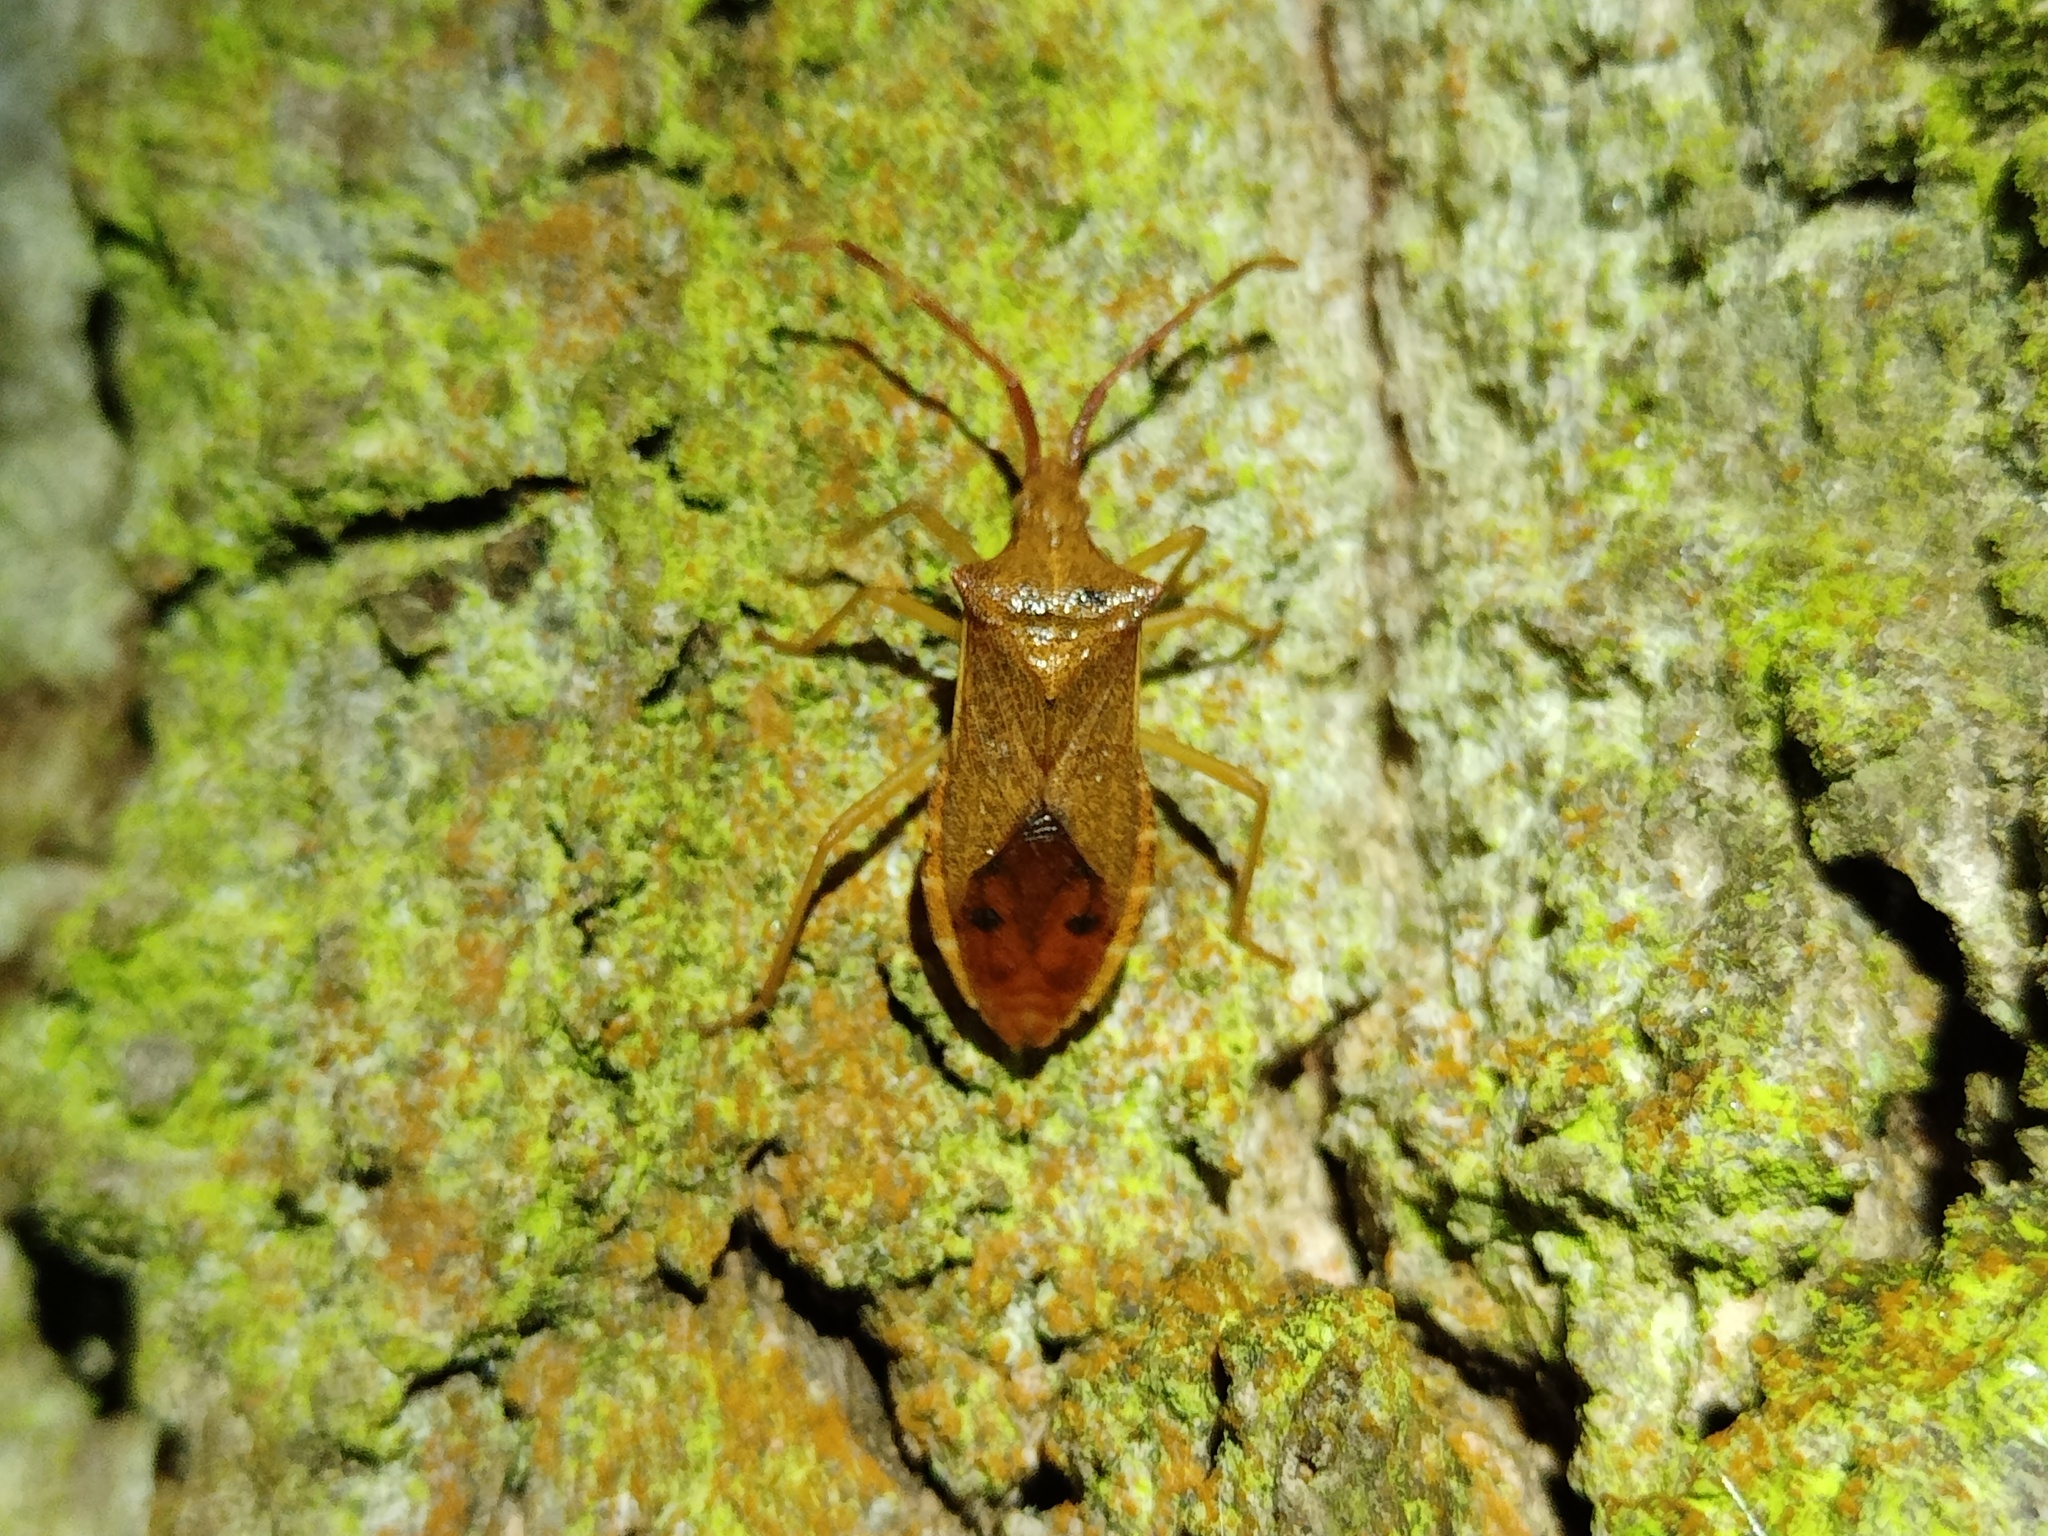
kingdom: Animalia
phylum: Arthropoda
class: Insecta
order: Hemiptera
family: Coreidae
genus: Gonocerus
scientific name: Gonocerus acuteangulatus
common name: Box bug
